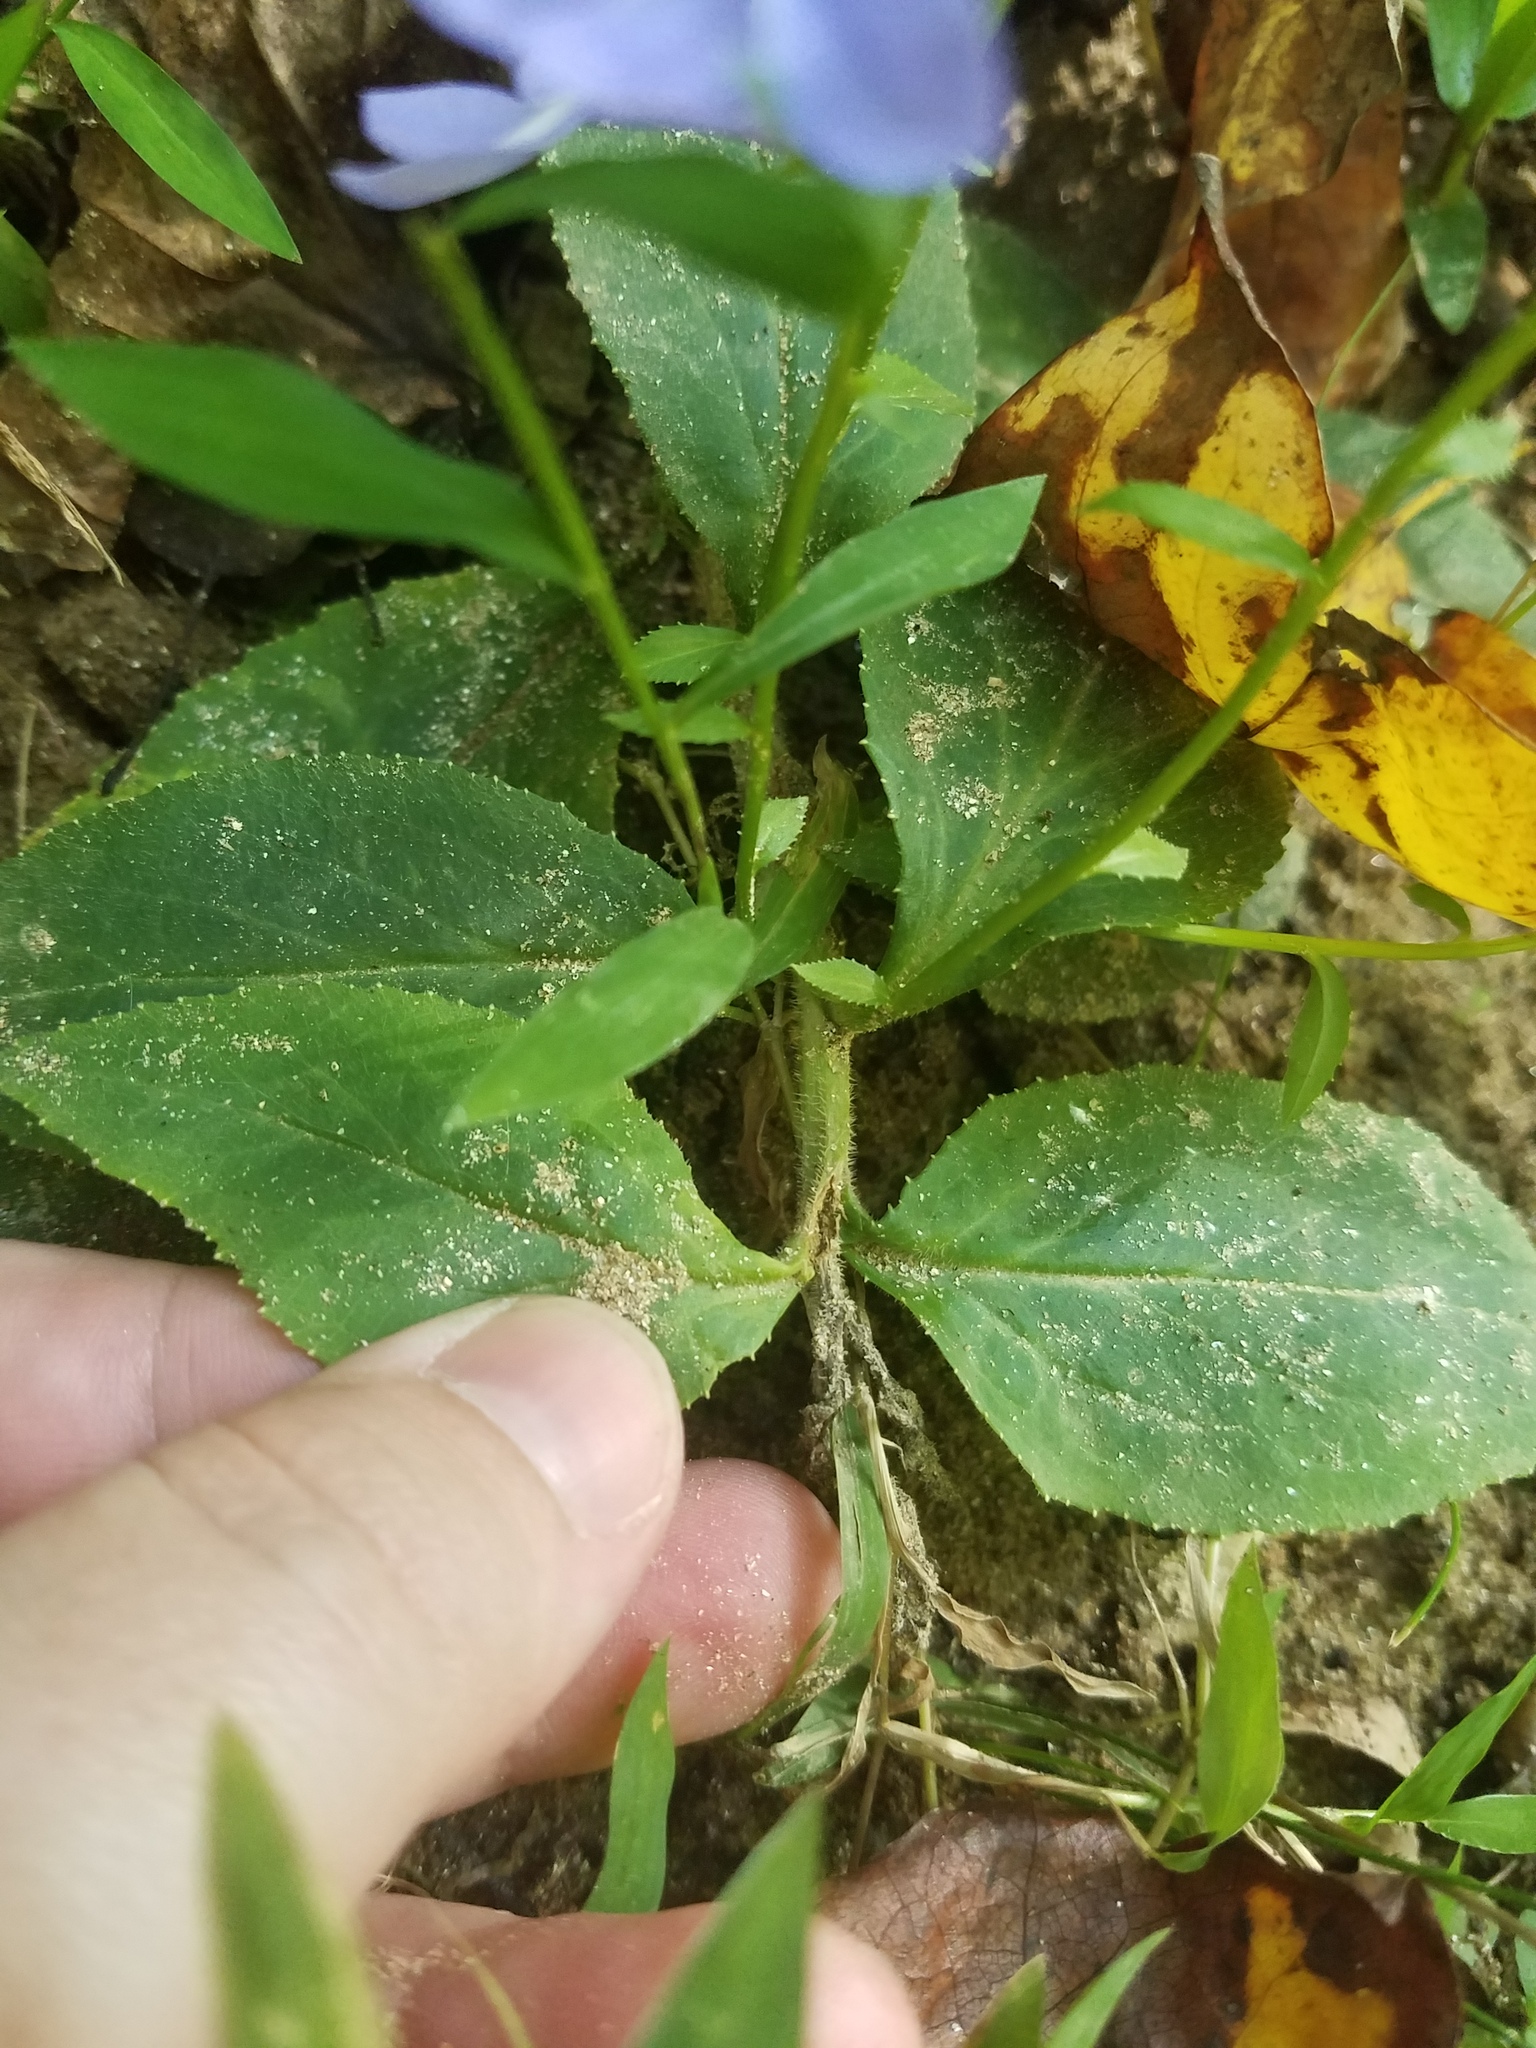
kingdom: Plantae
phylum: Tracheophyta
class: Magnoliopsida
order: Asterales
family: Campanulaceae
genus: Lobelia
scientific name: Lobelia amoena
